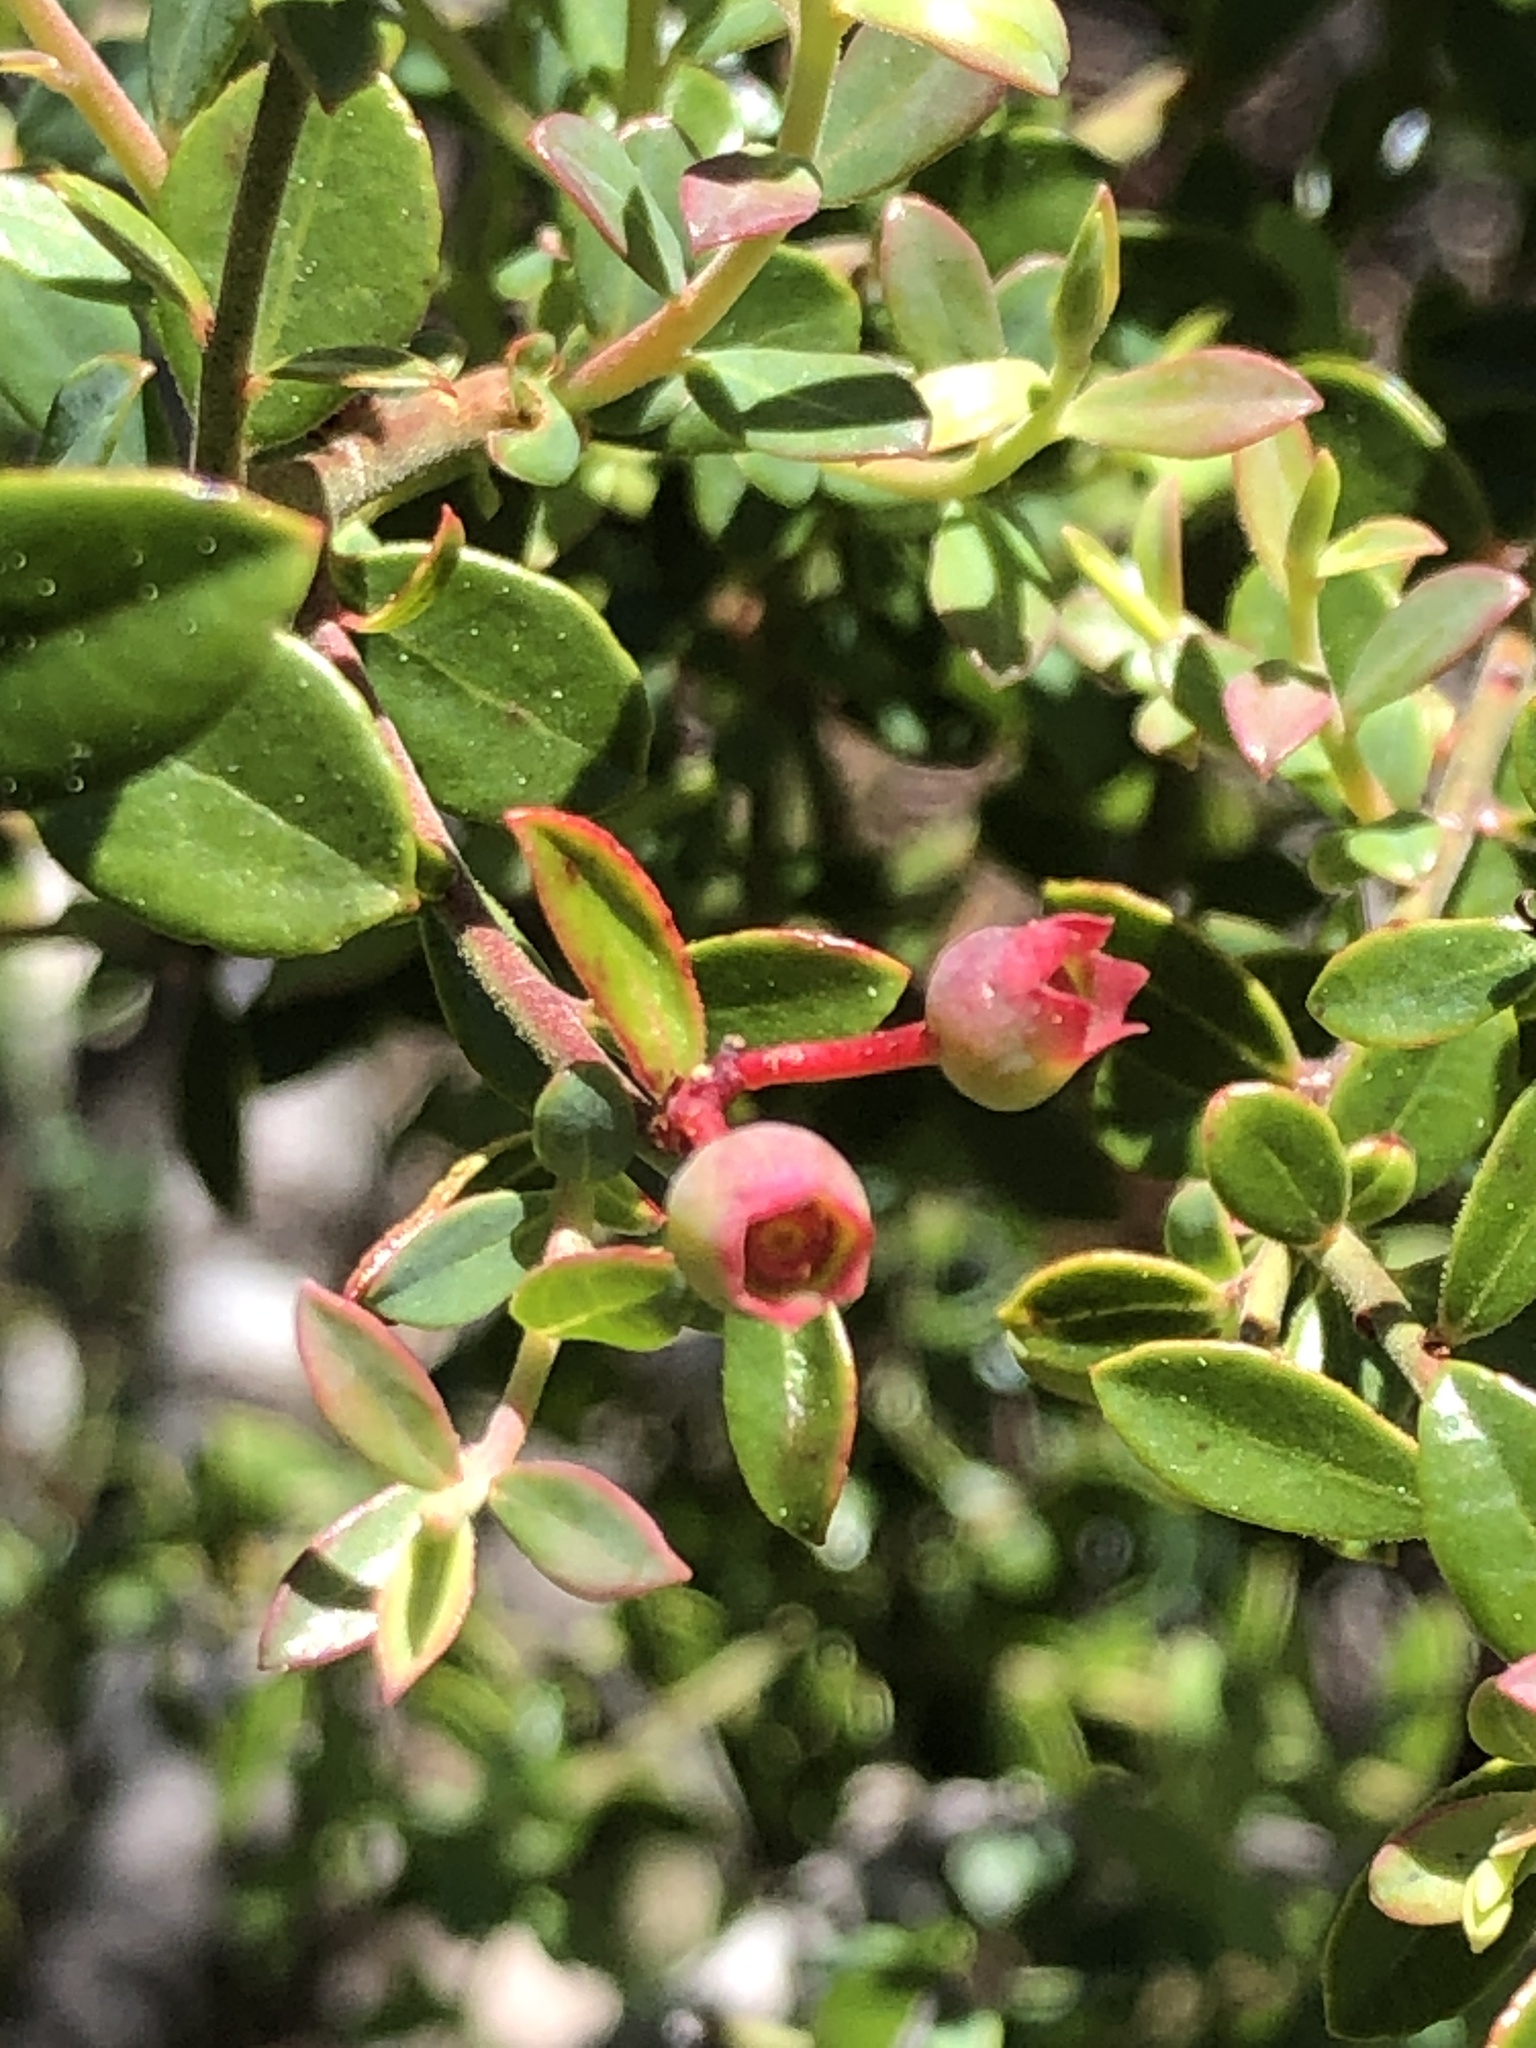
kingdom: Plantae
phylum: Tracheophyta
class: Magnoliopsida
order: Ericales
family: Ericaceae
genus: Vaccinium
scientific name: Vaccinium darrowii
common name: Darrow's blueberry
